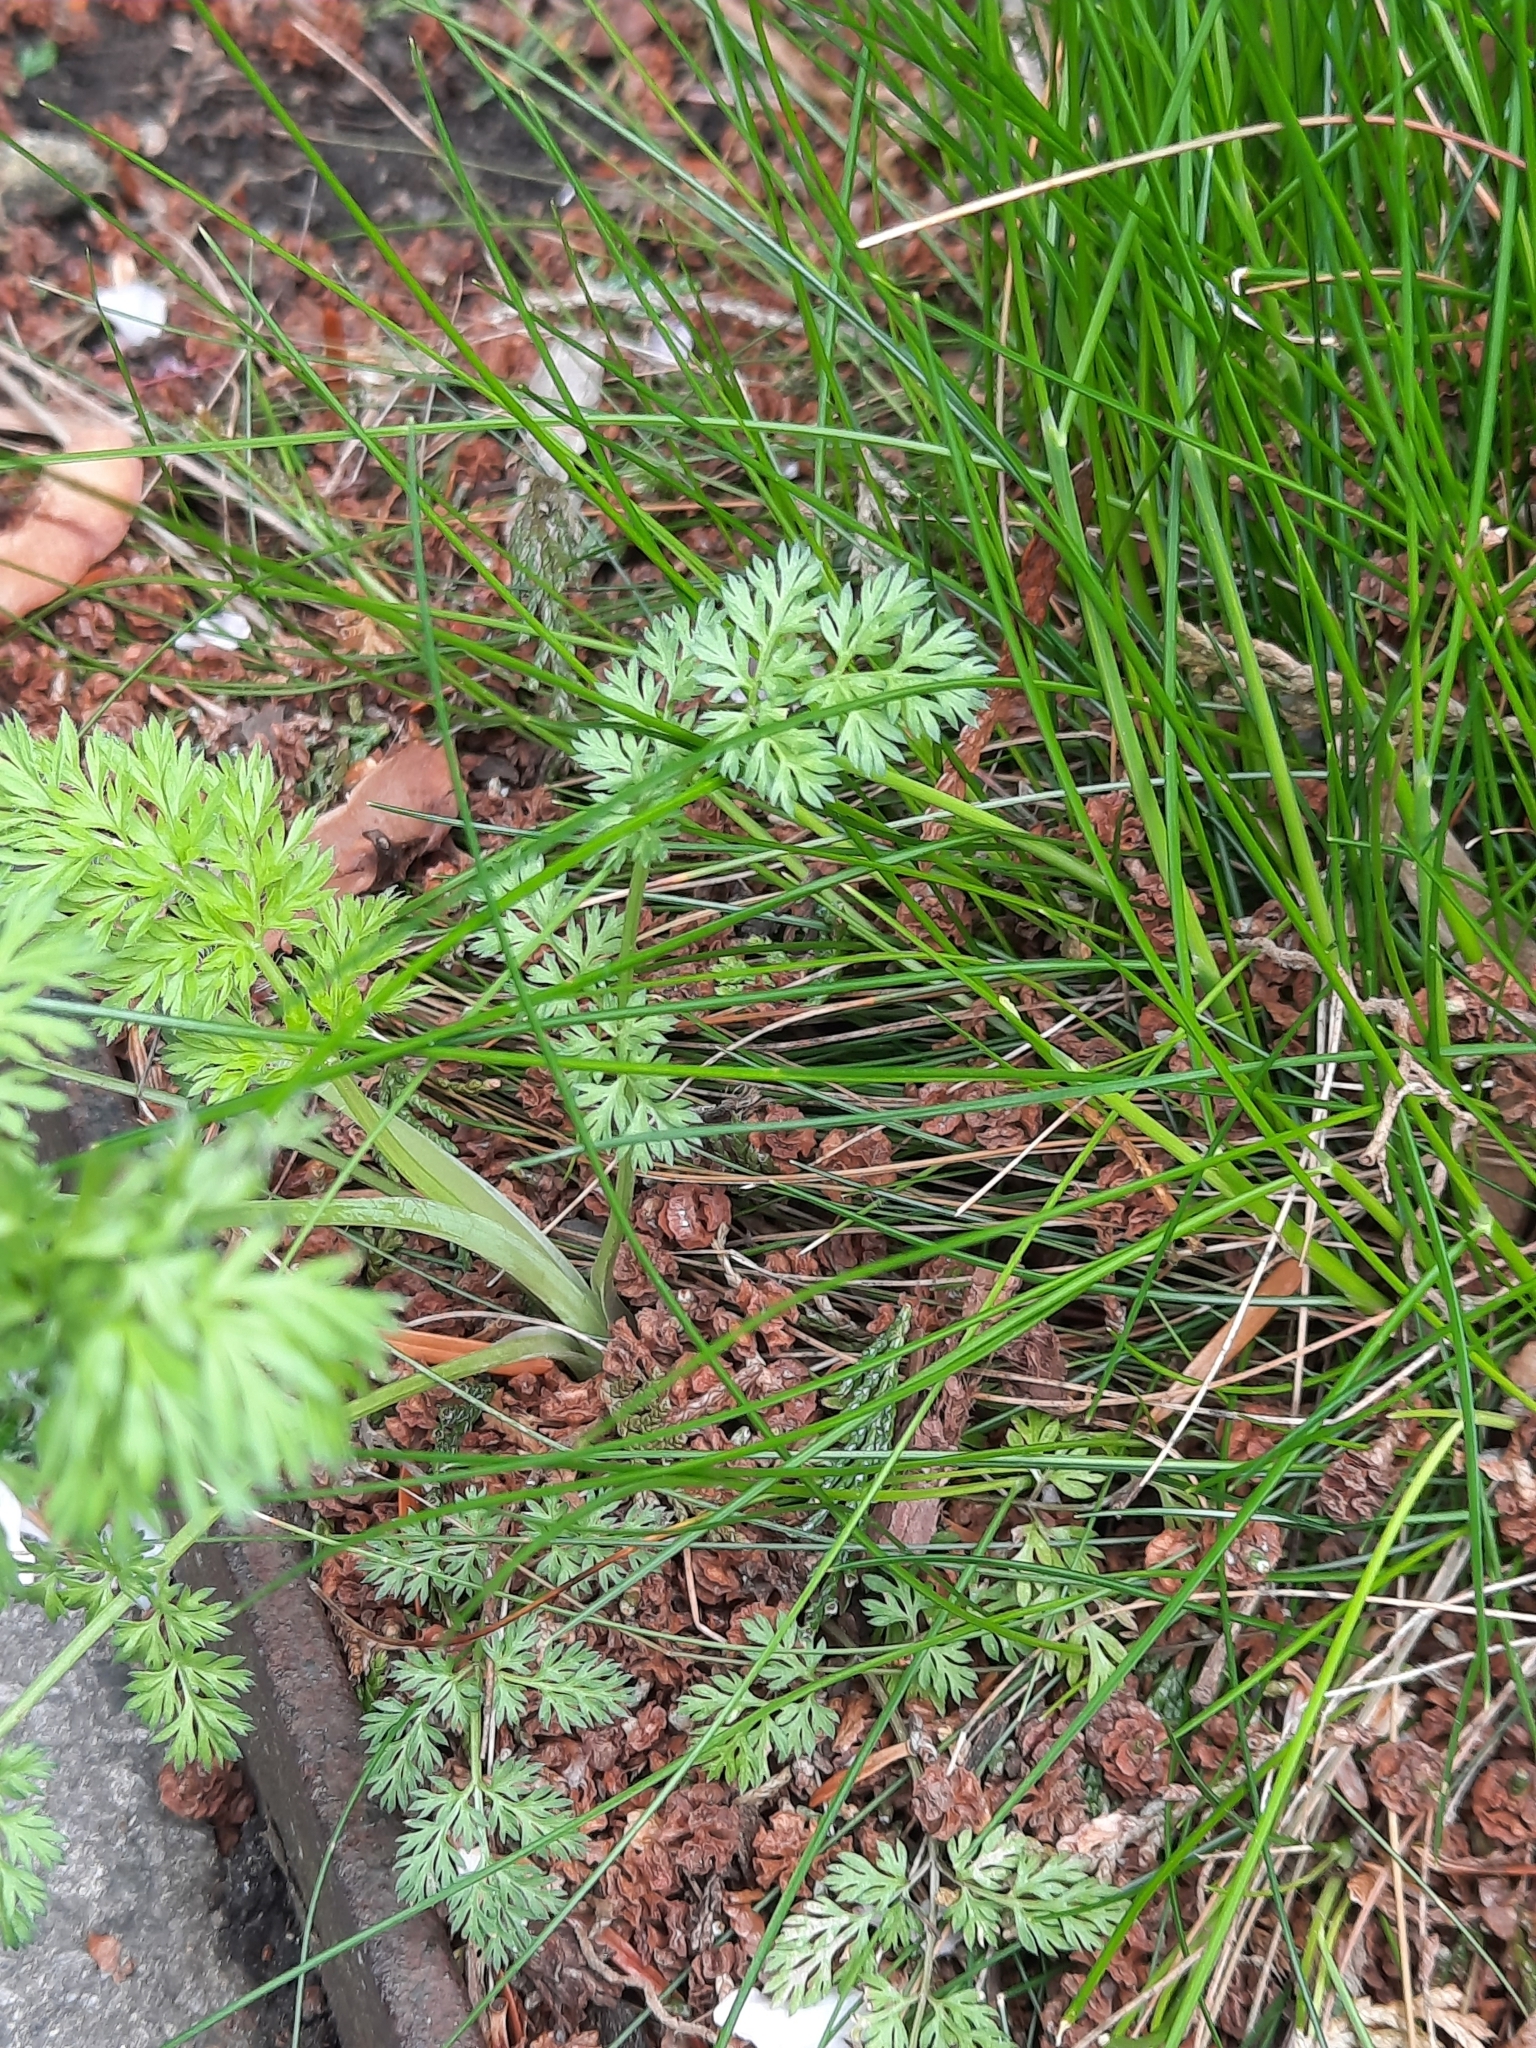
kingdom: Plantae
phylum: Tracheophyta
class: Magnoliopsida
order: Apiales
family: Apiaceae
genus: Daucus
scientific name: Daucus carota
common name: Wild carrot
